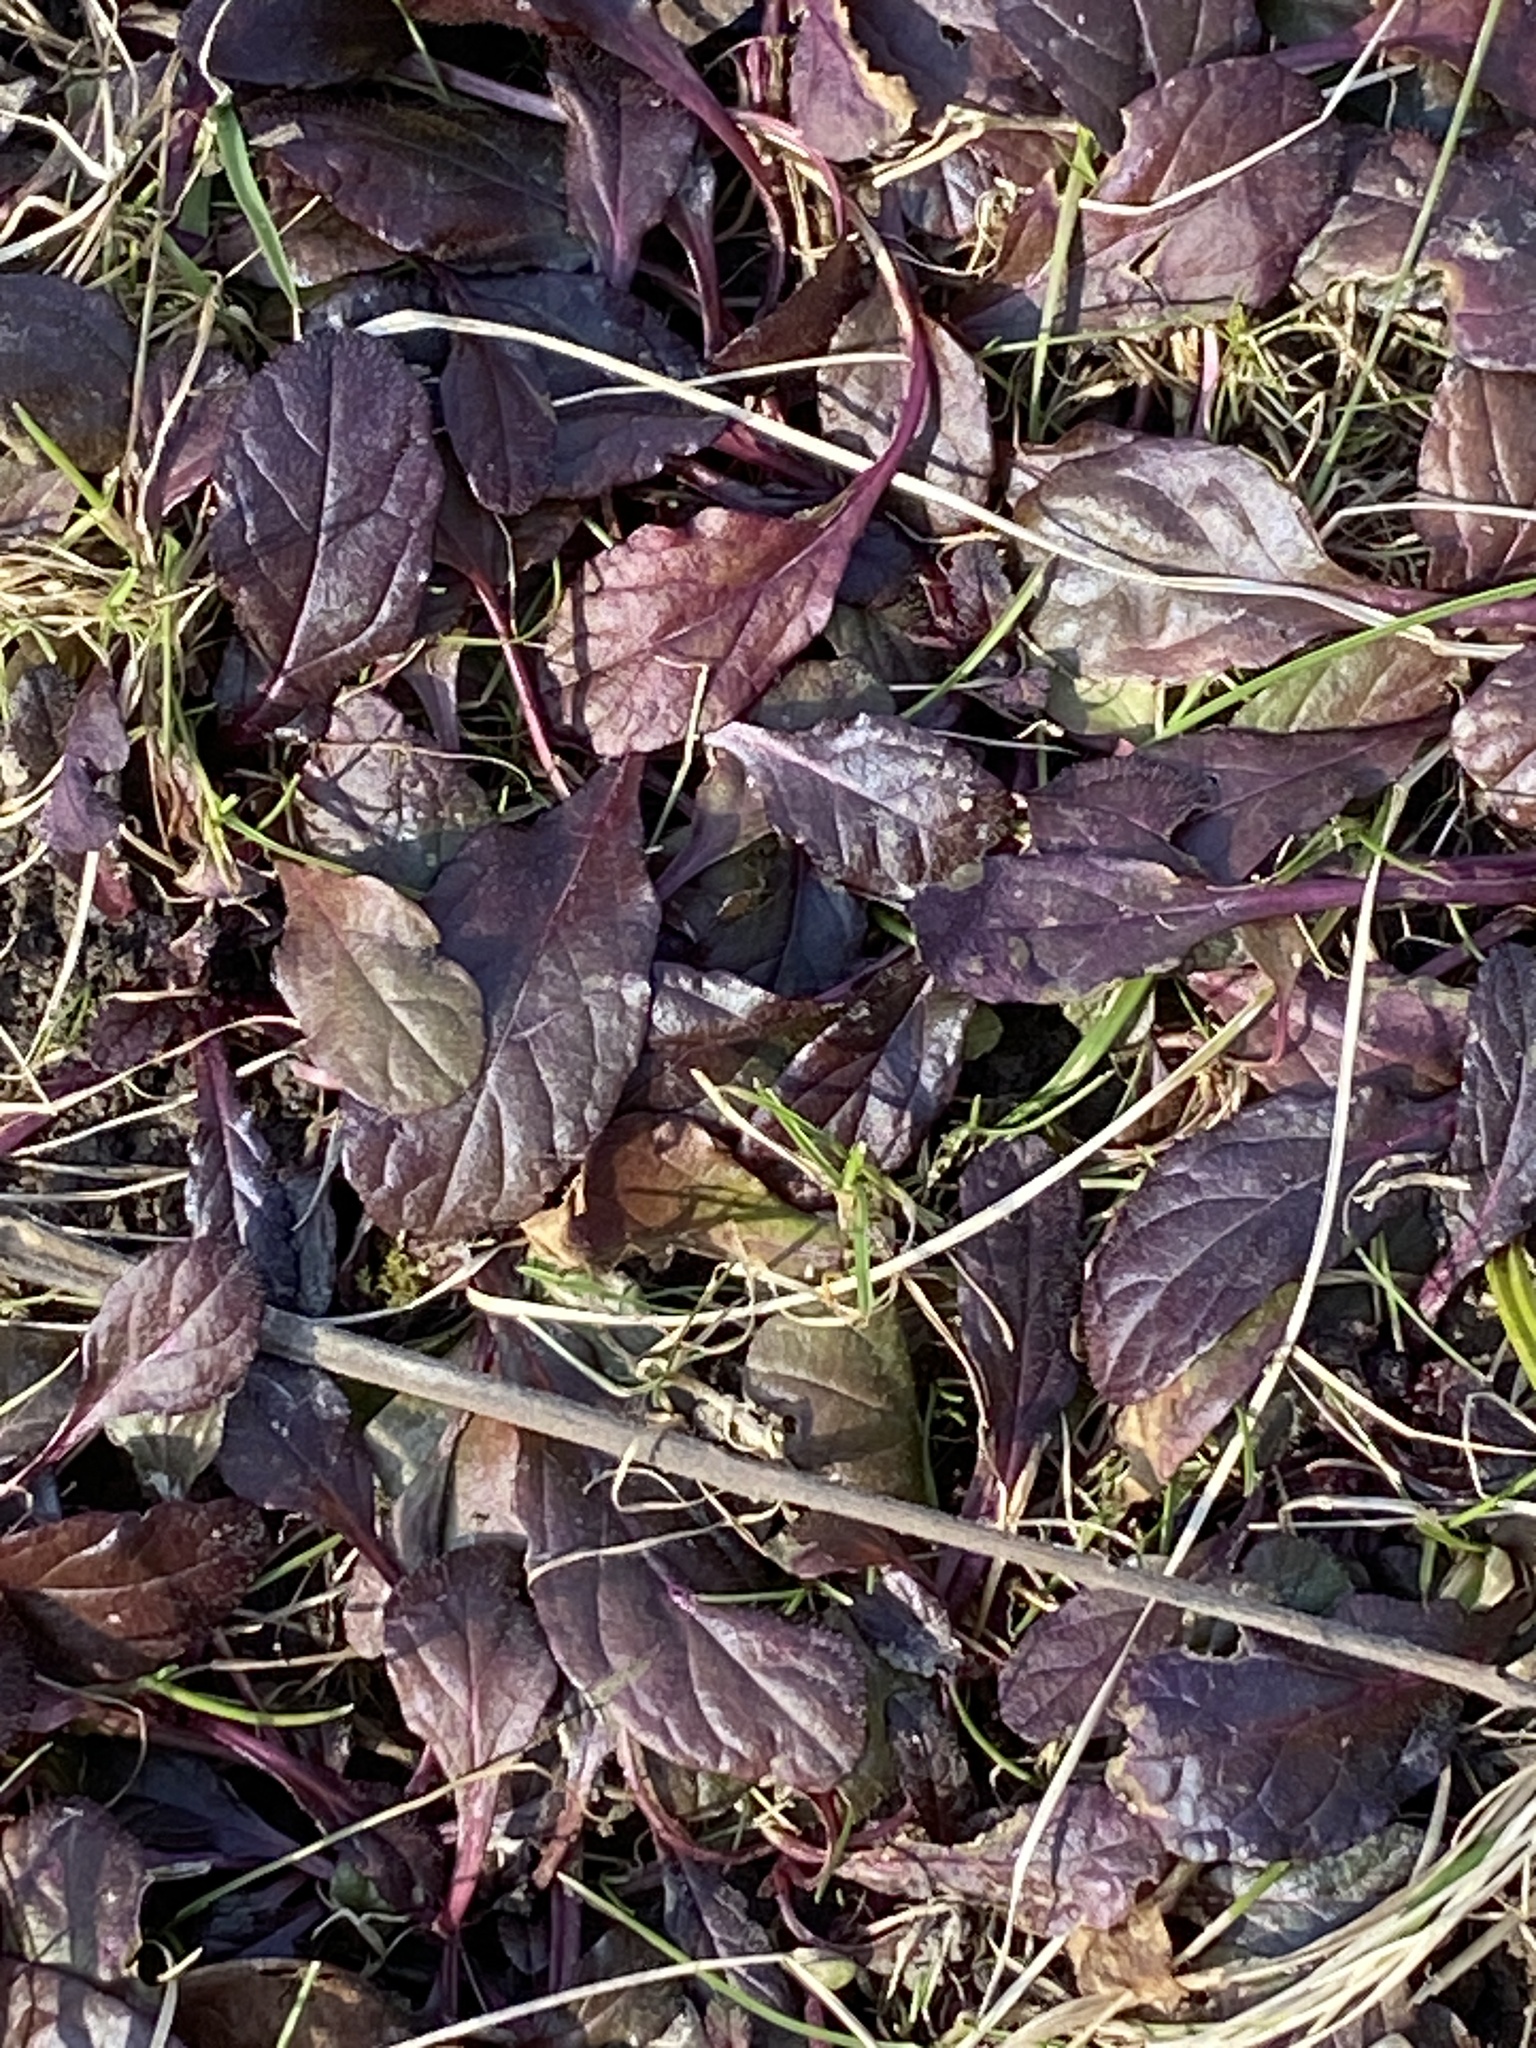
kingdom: Plantae
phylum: Tracheophyta
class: Magnoliopsida
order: Lamiales
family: Lamiaceae
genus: Ajuga
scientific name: Ajuga reptans
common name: Bugle
